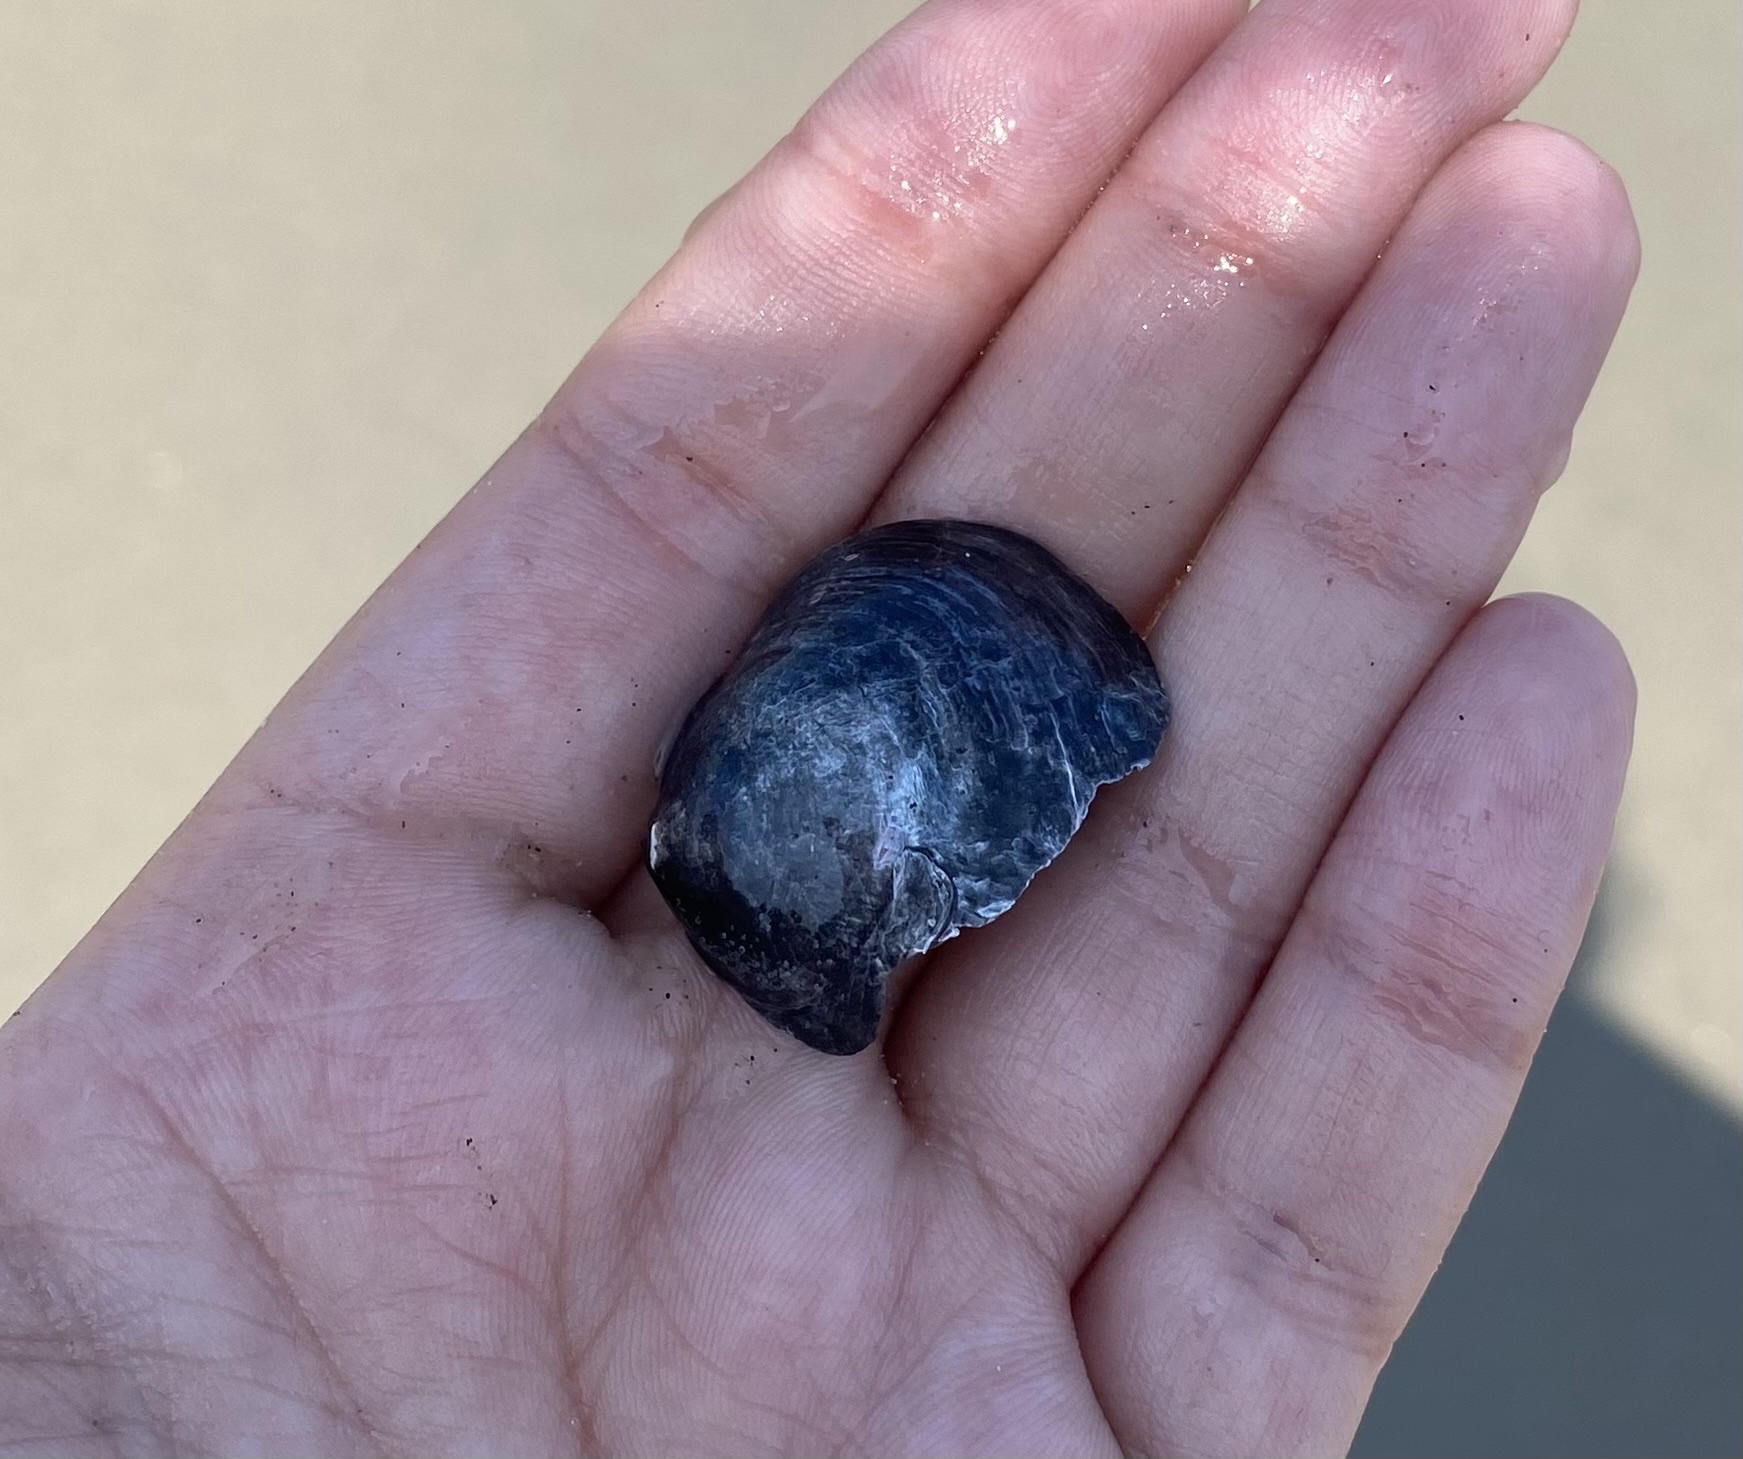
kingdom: Animalia
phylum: Mollusca
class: Bivalvia
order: Pectinida
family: Anomiidae
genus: Anomia
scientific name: Anomia simplex
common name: Common jingle shell
